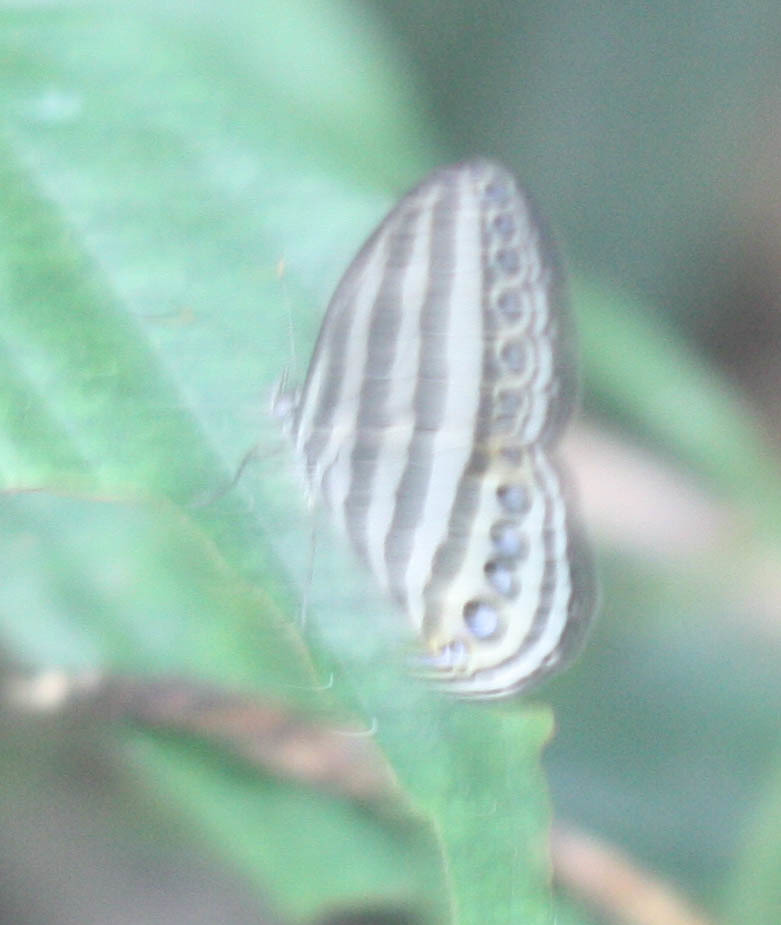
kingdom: Animalia
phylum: Arthropoda
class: Insecta
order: Lepidoptera
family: Nymphalidae
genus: Ragadia
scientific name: Ragadia makuta
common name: Striped ringlet
